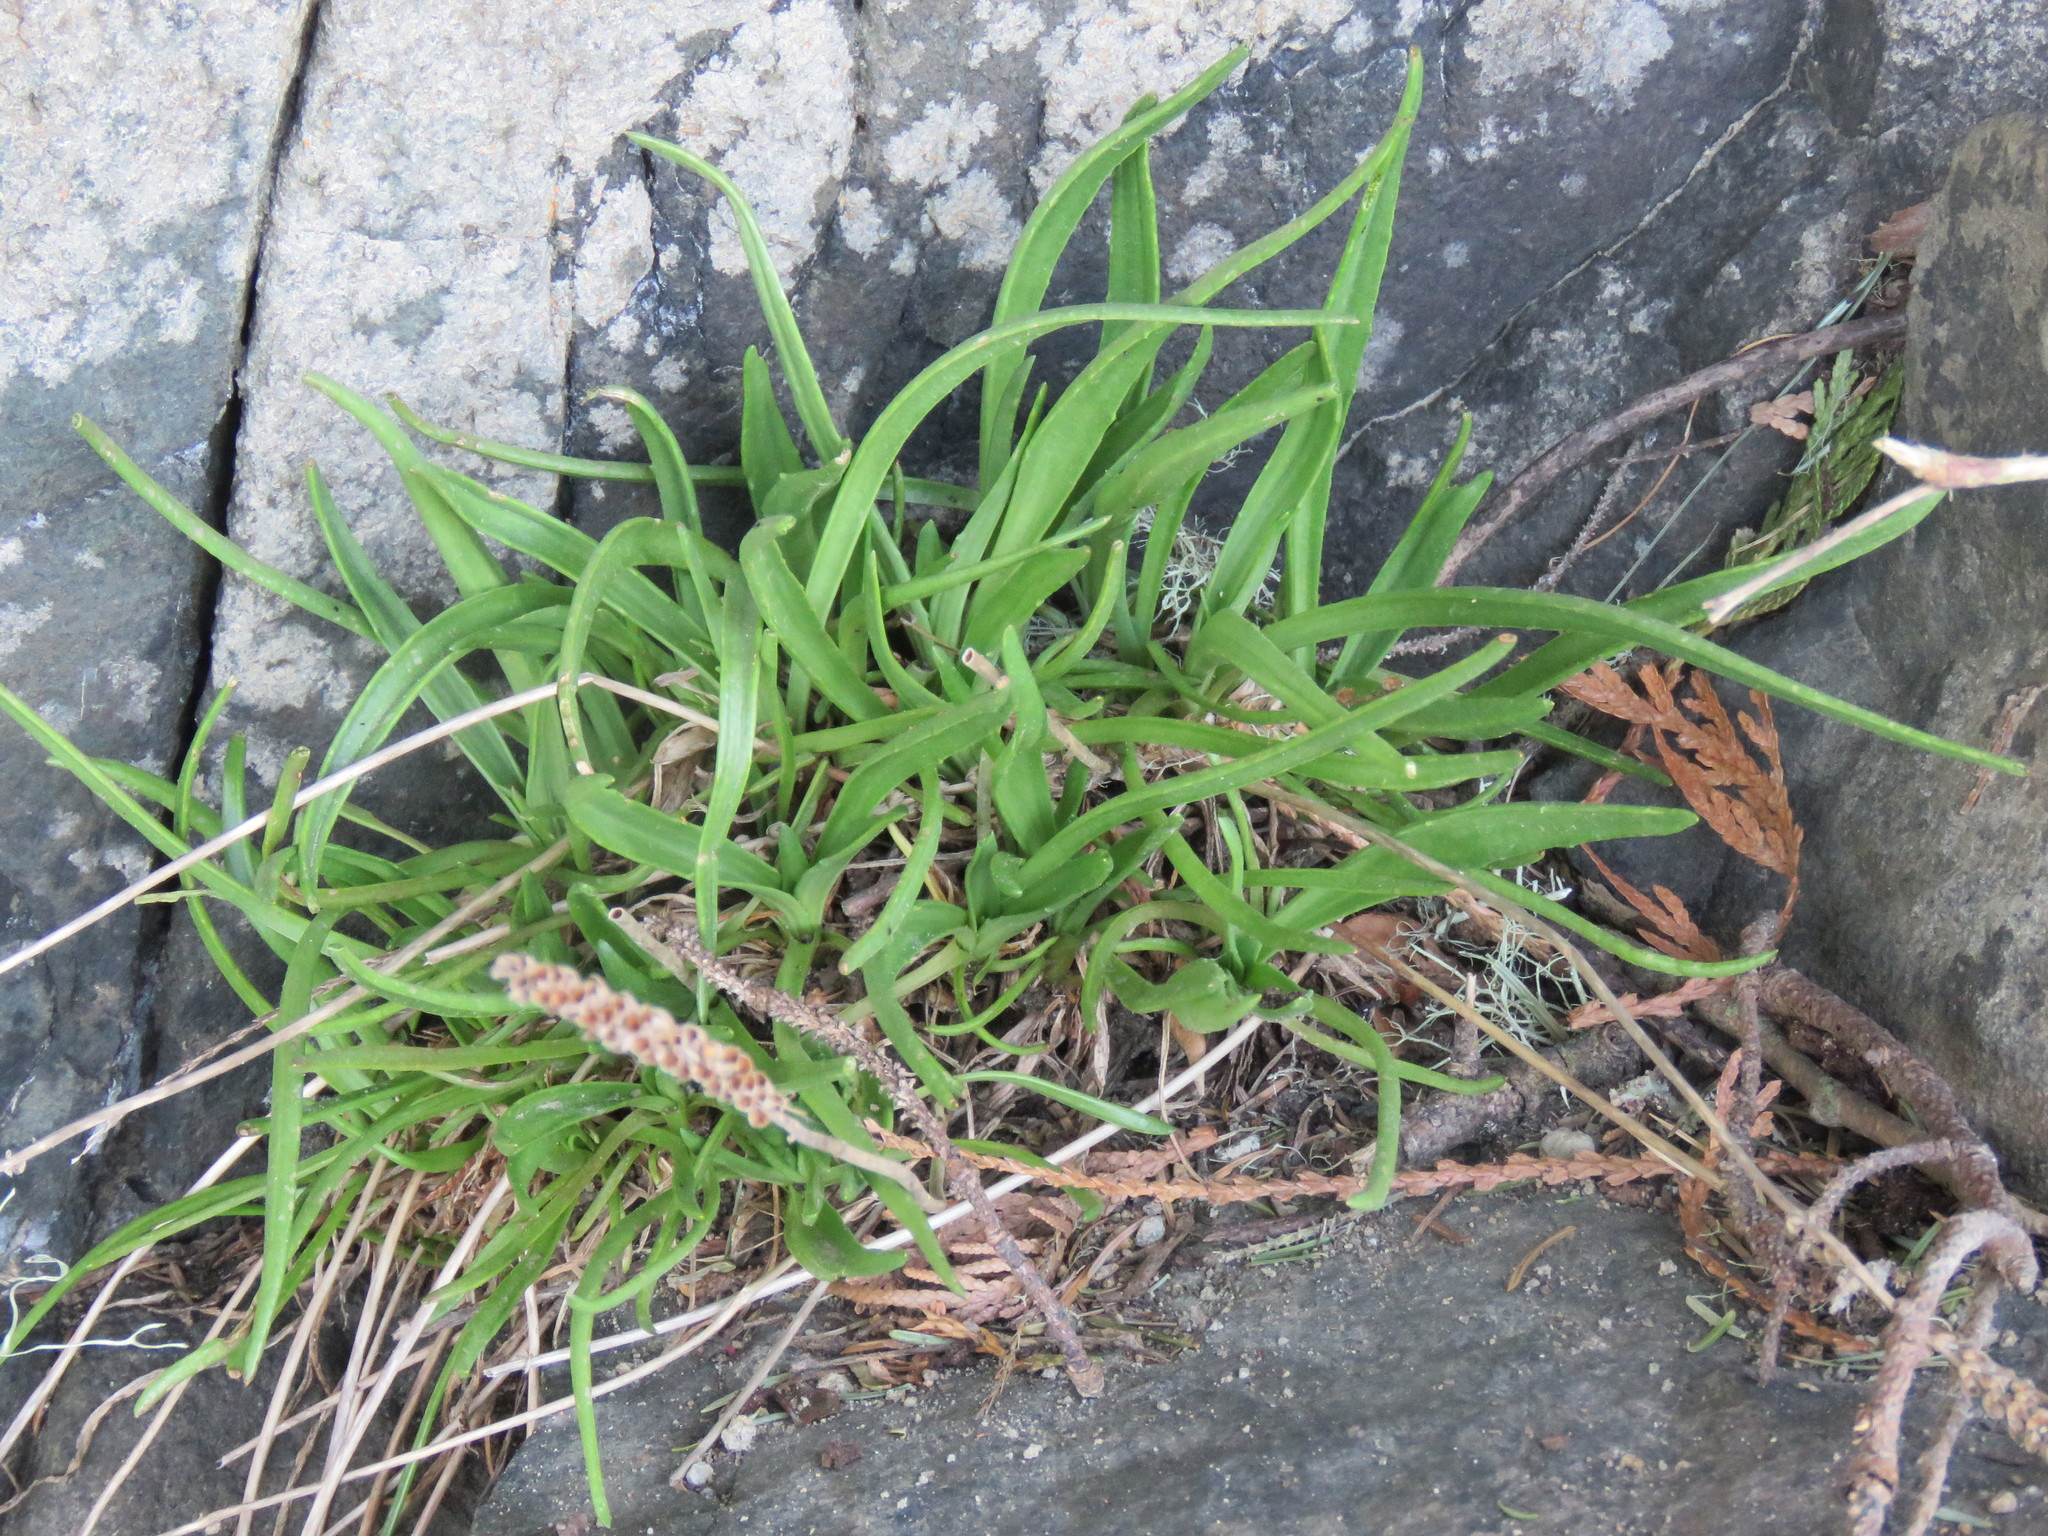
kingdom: Plantae
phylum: Tracheophyta
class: Magnoliopsida
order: Lamiales
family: Plantaginaceae
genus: Plantago
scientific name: Plantago maritima
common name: Sea plantain
